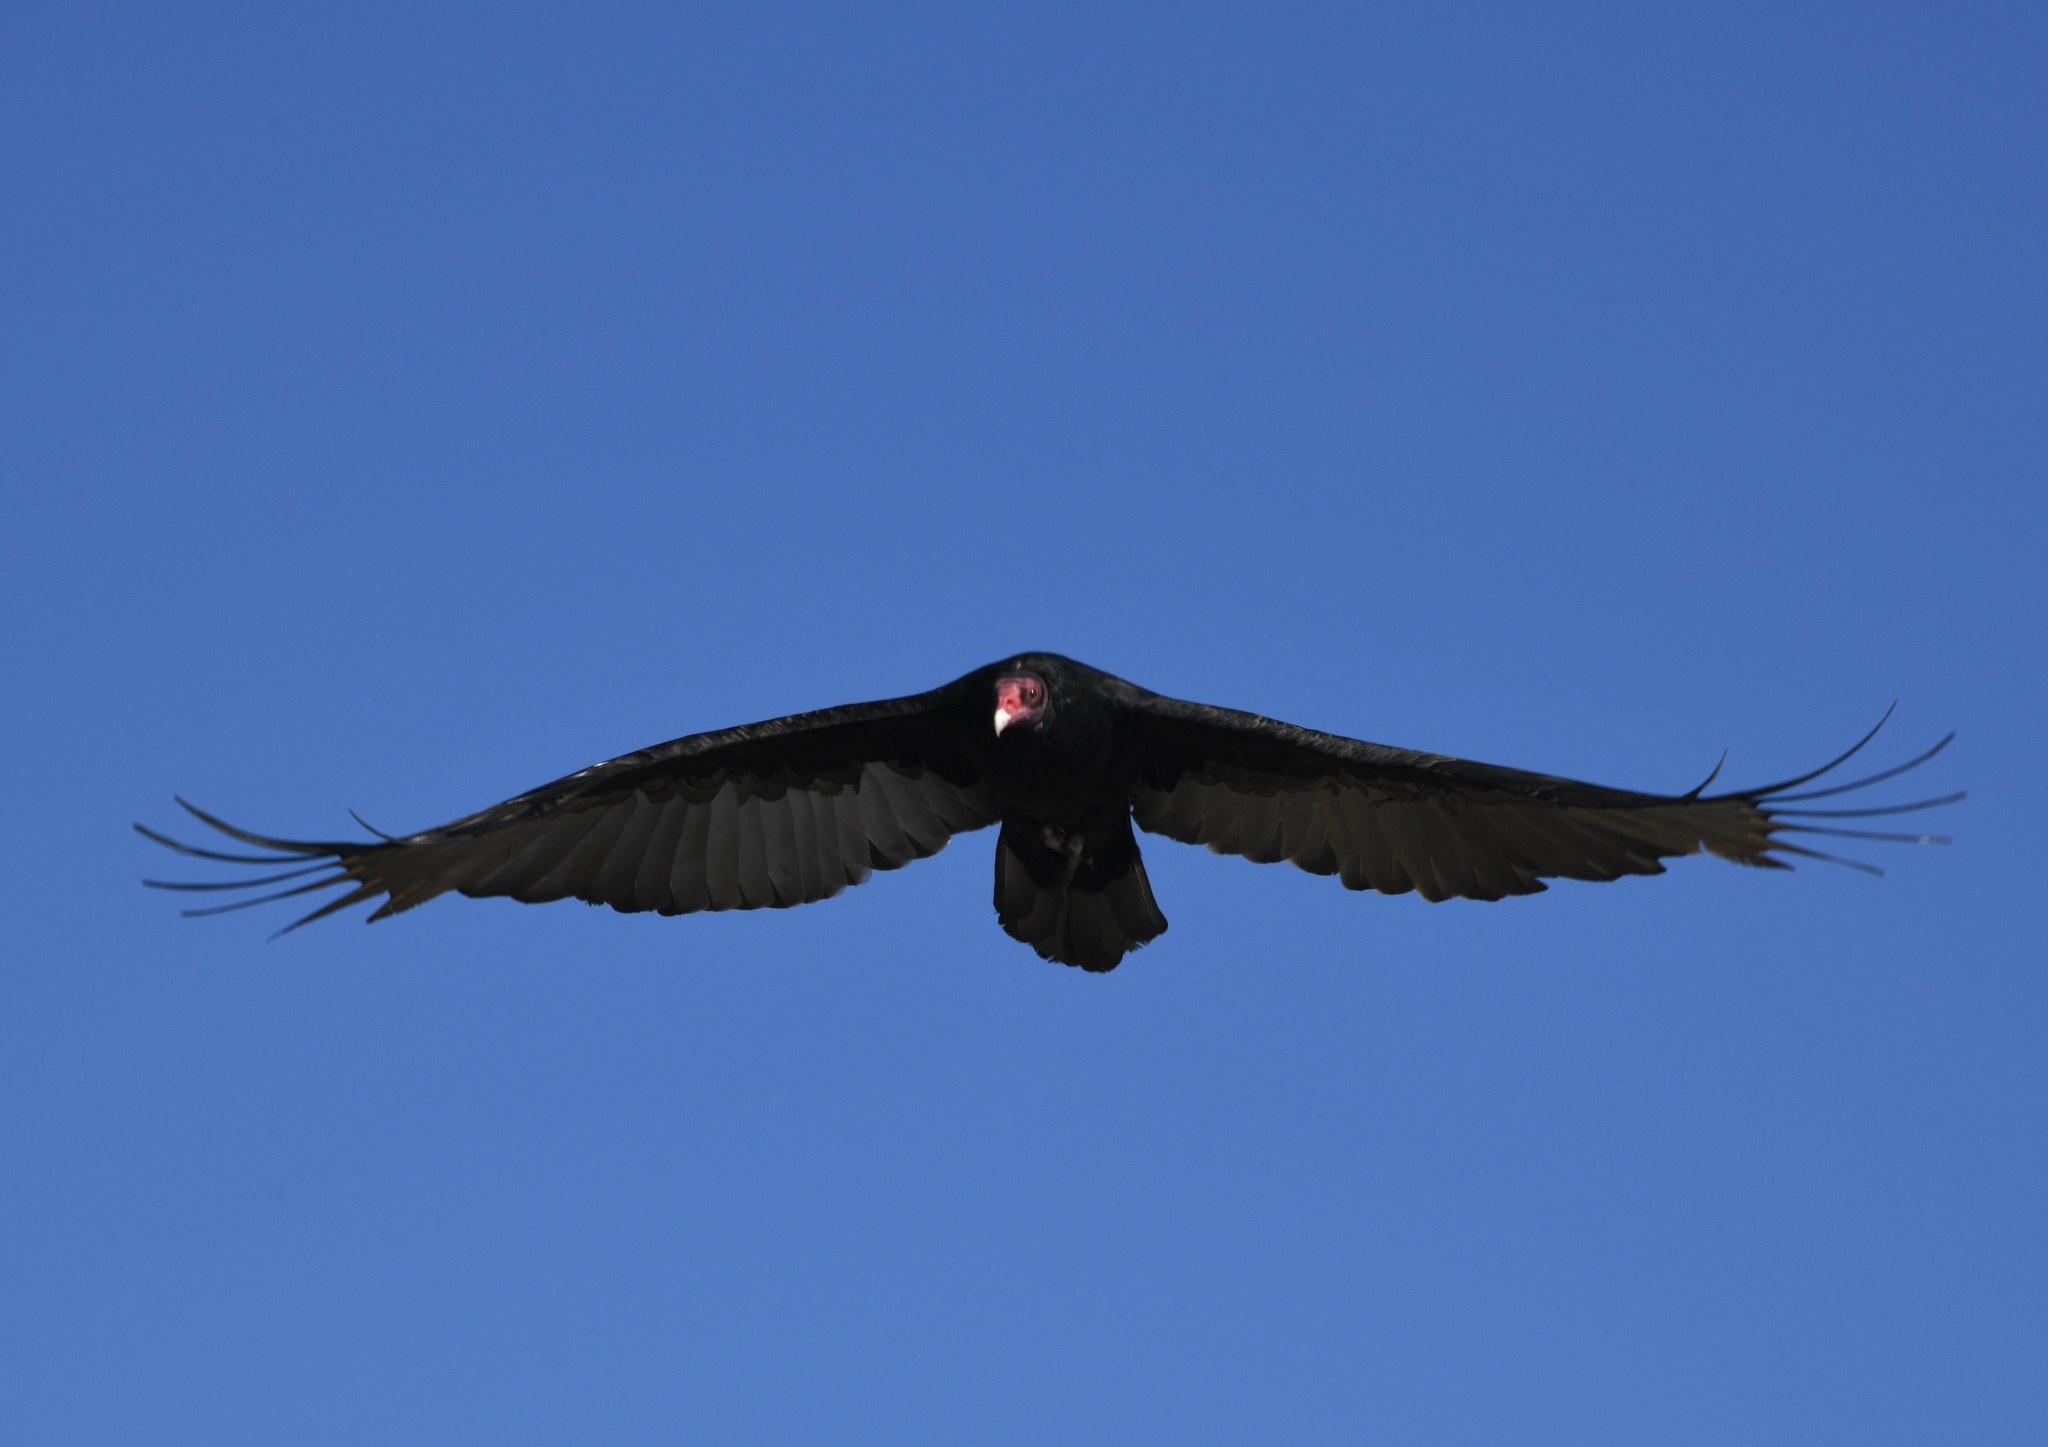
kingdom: Animalia
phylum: Chordata
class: Aves
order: Accipitriformes
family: Cathartidae
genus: Cathartes
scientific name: Cathartes aura
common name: Turkey vulture
